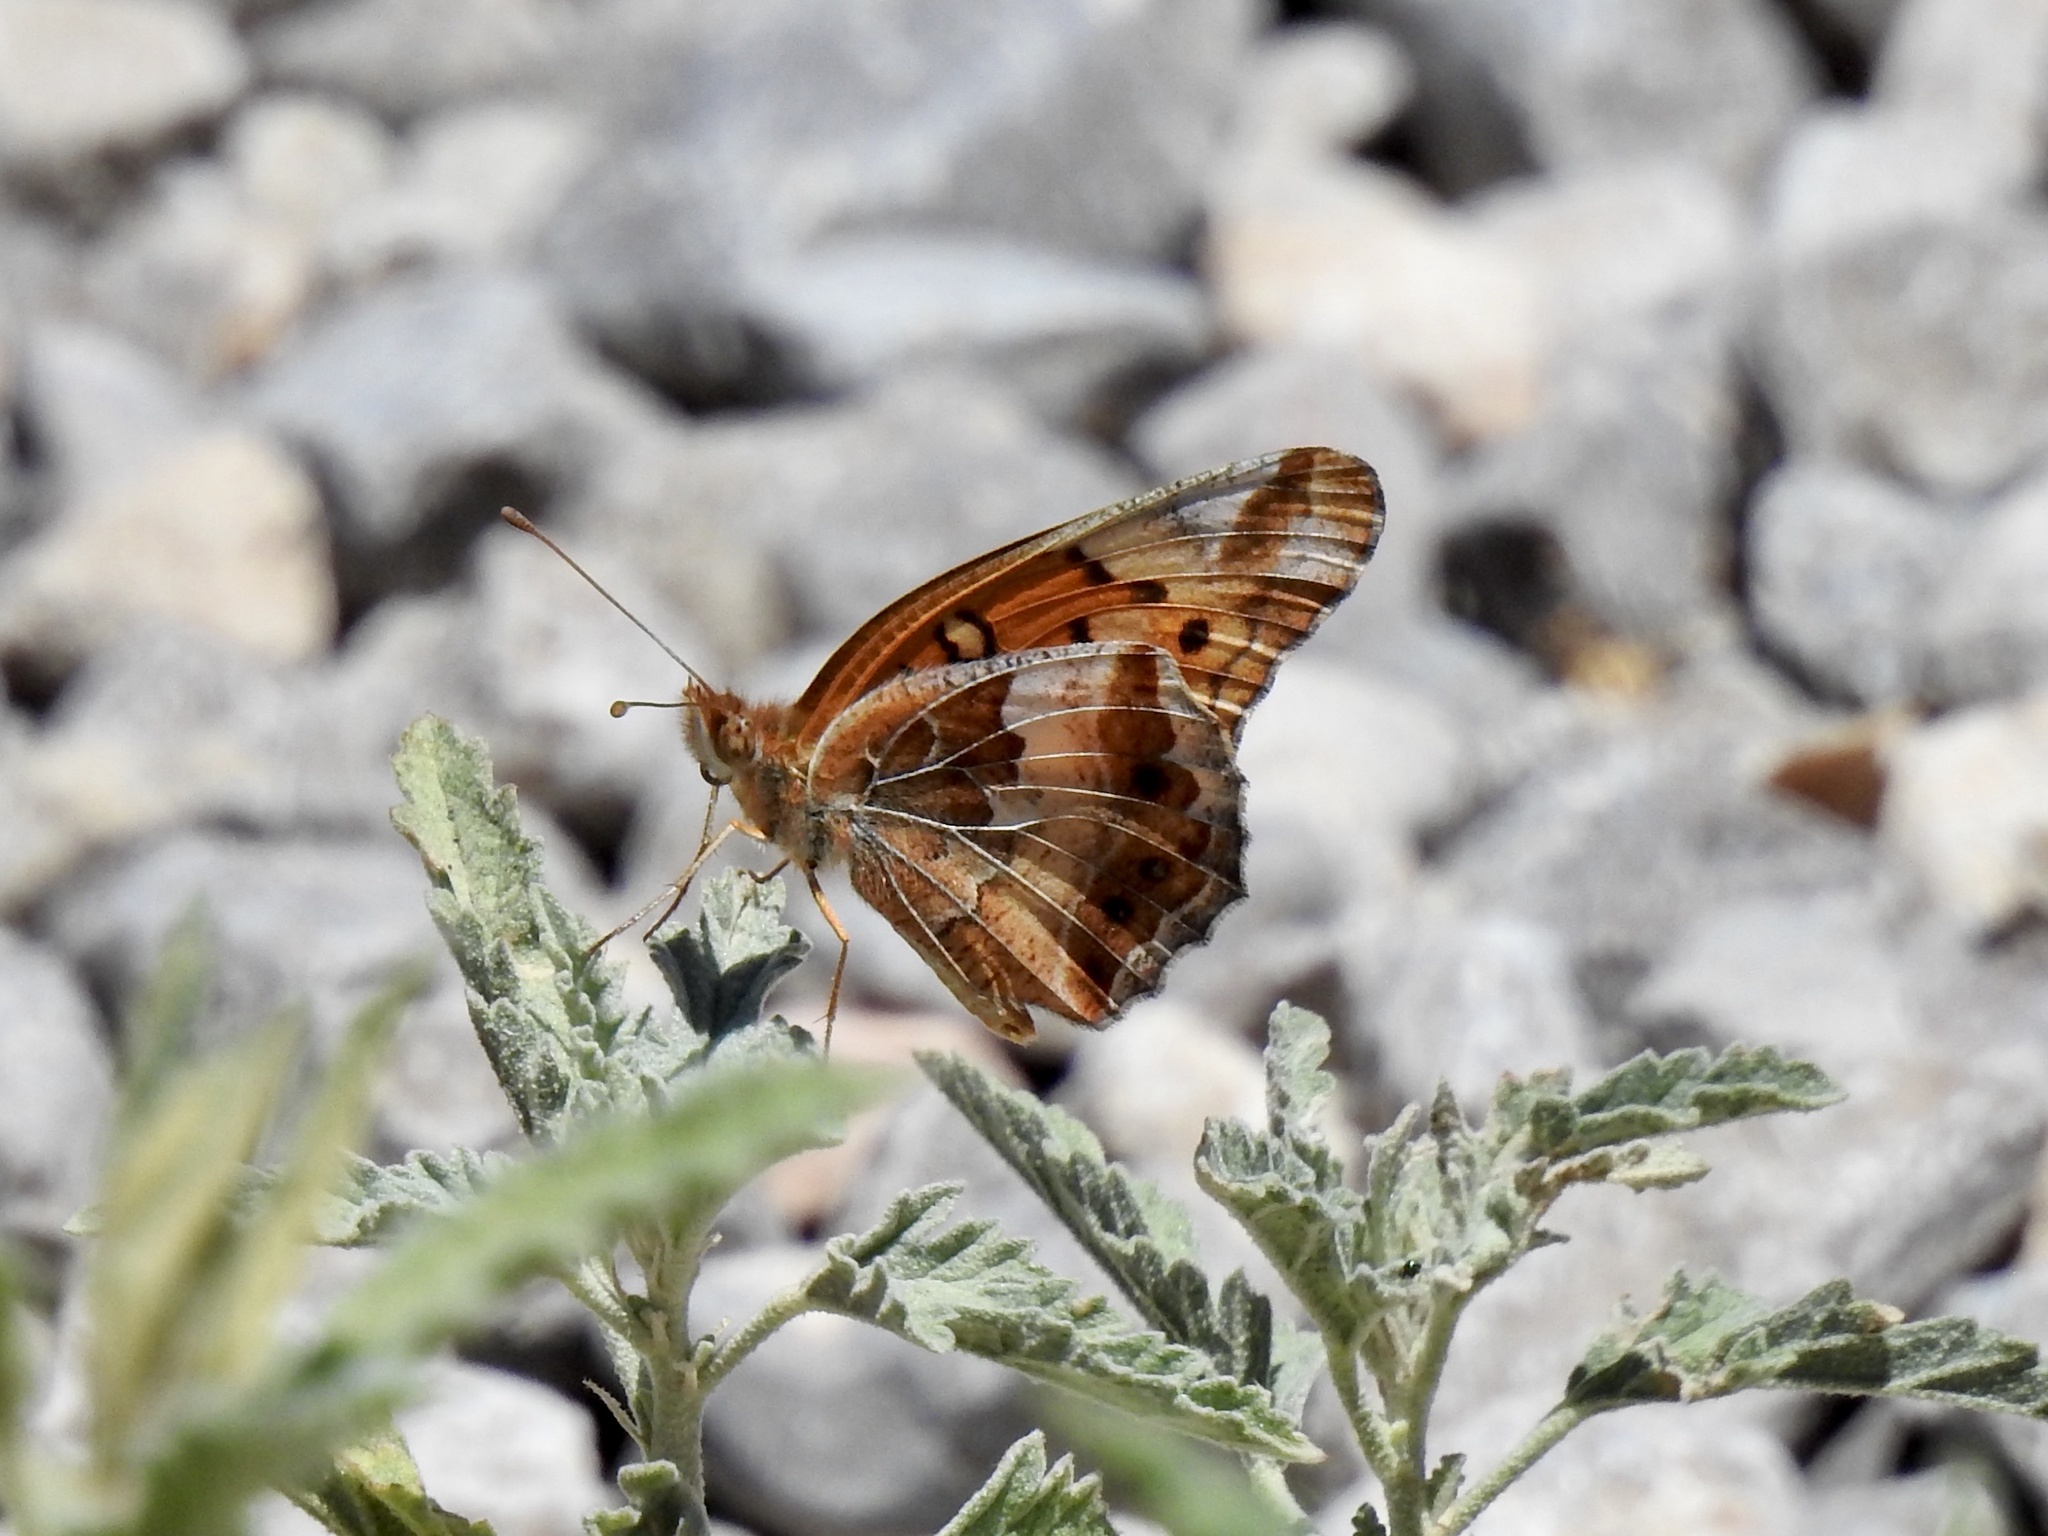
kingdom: Animalia
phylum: Arthropoda
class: Insecta
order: Lepidoptera
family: Nymphalidae
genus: Euptoieta
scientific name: Euptoieta claudia
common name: Variegated fritillary
